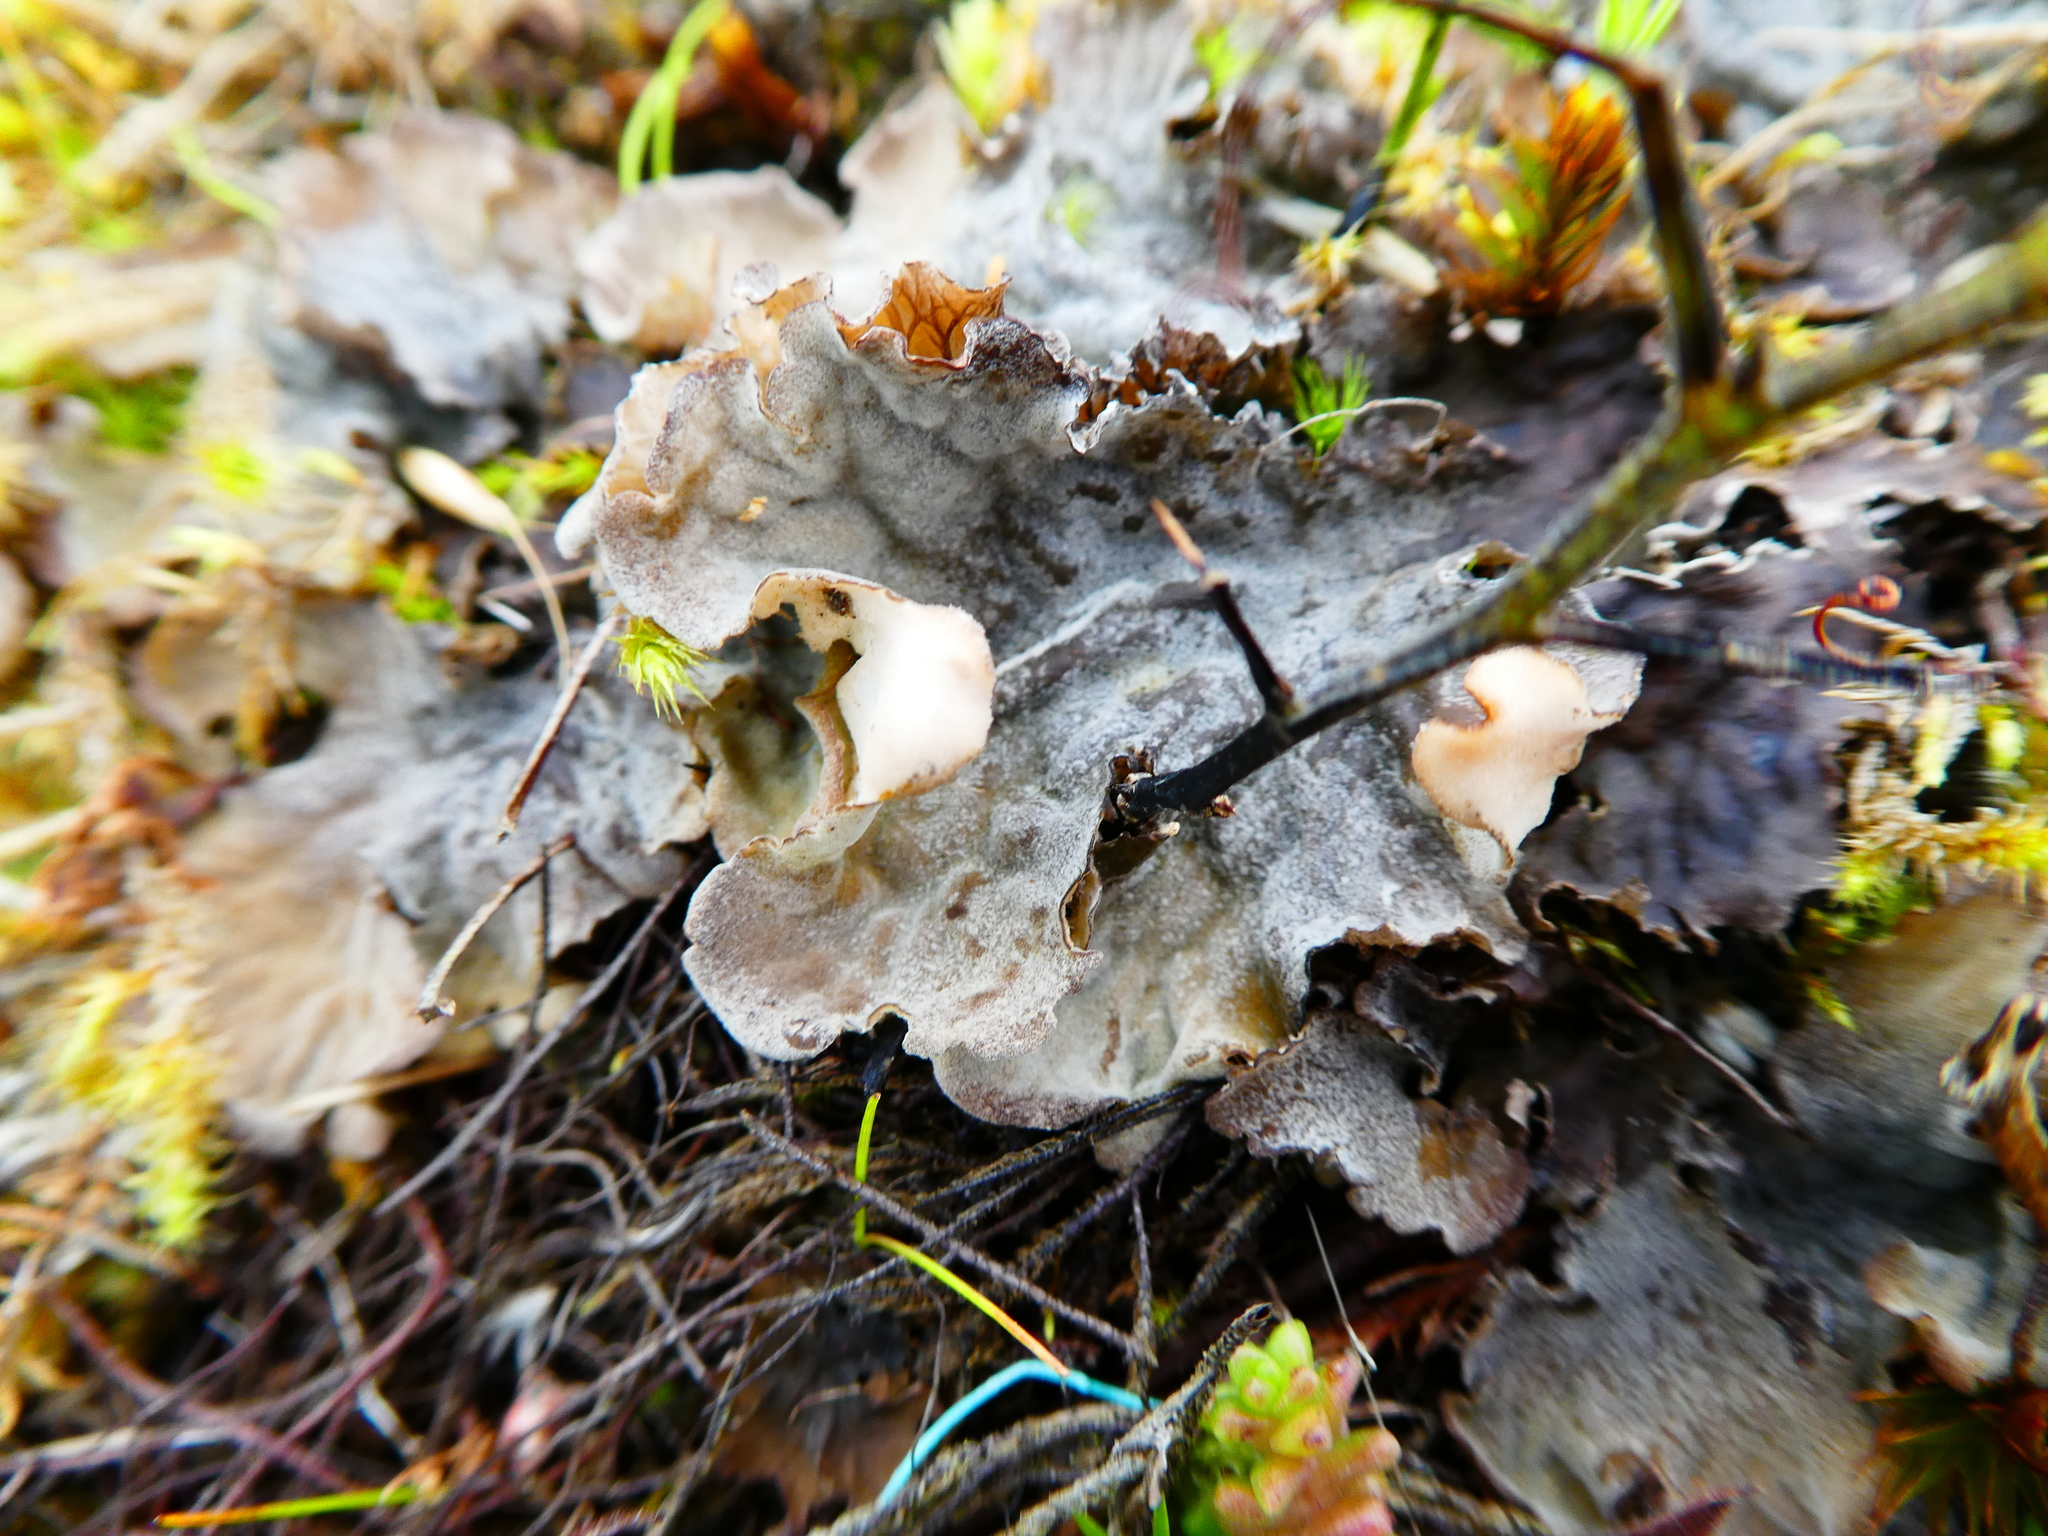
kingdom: Fungi
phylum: Ascomycota
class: Lecanoromycetes
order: Peltigerales
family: Peltigeraceae
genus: Peltigera
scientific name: Peltigera
